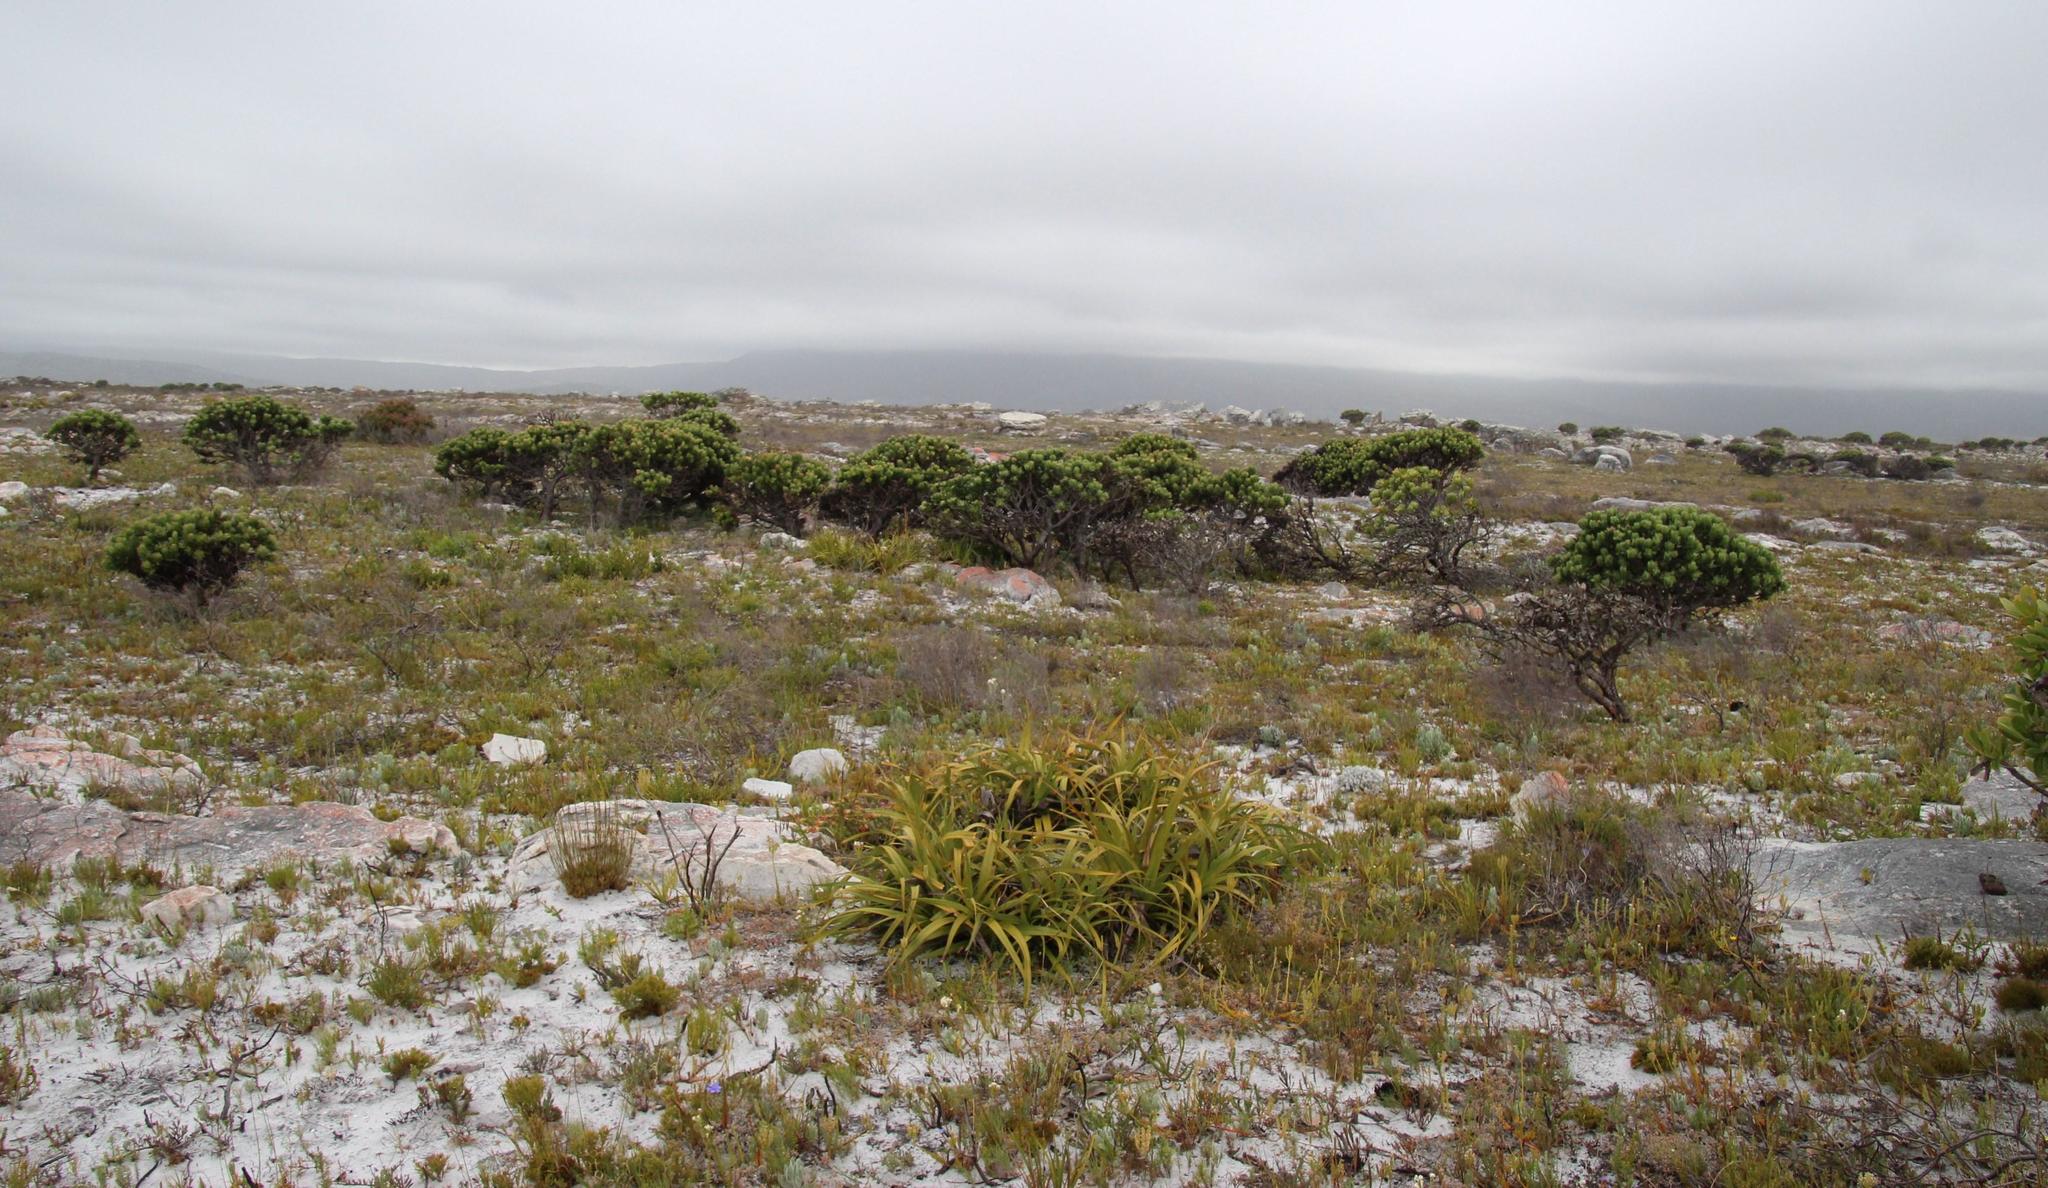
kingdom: Plantae
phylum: Tracheophyta
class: Liliopsida
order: Poales
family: Cyperaceae
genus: Tetraria
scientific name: Tetraria thermalis
